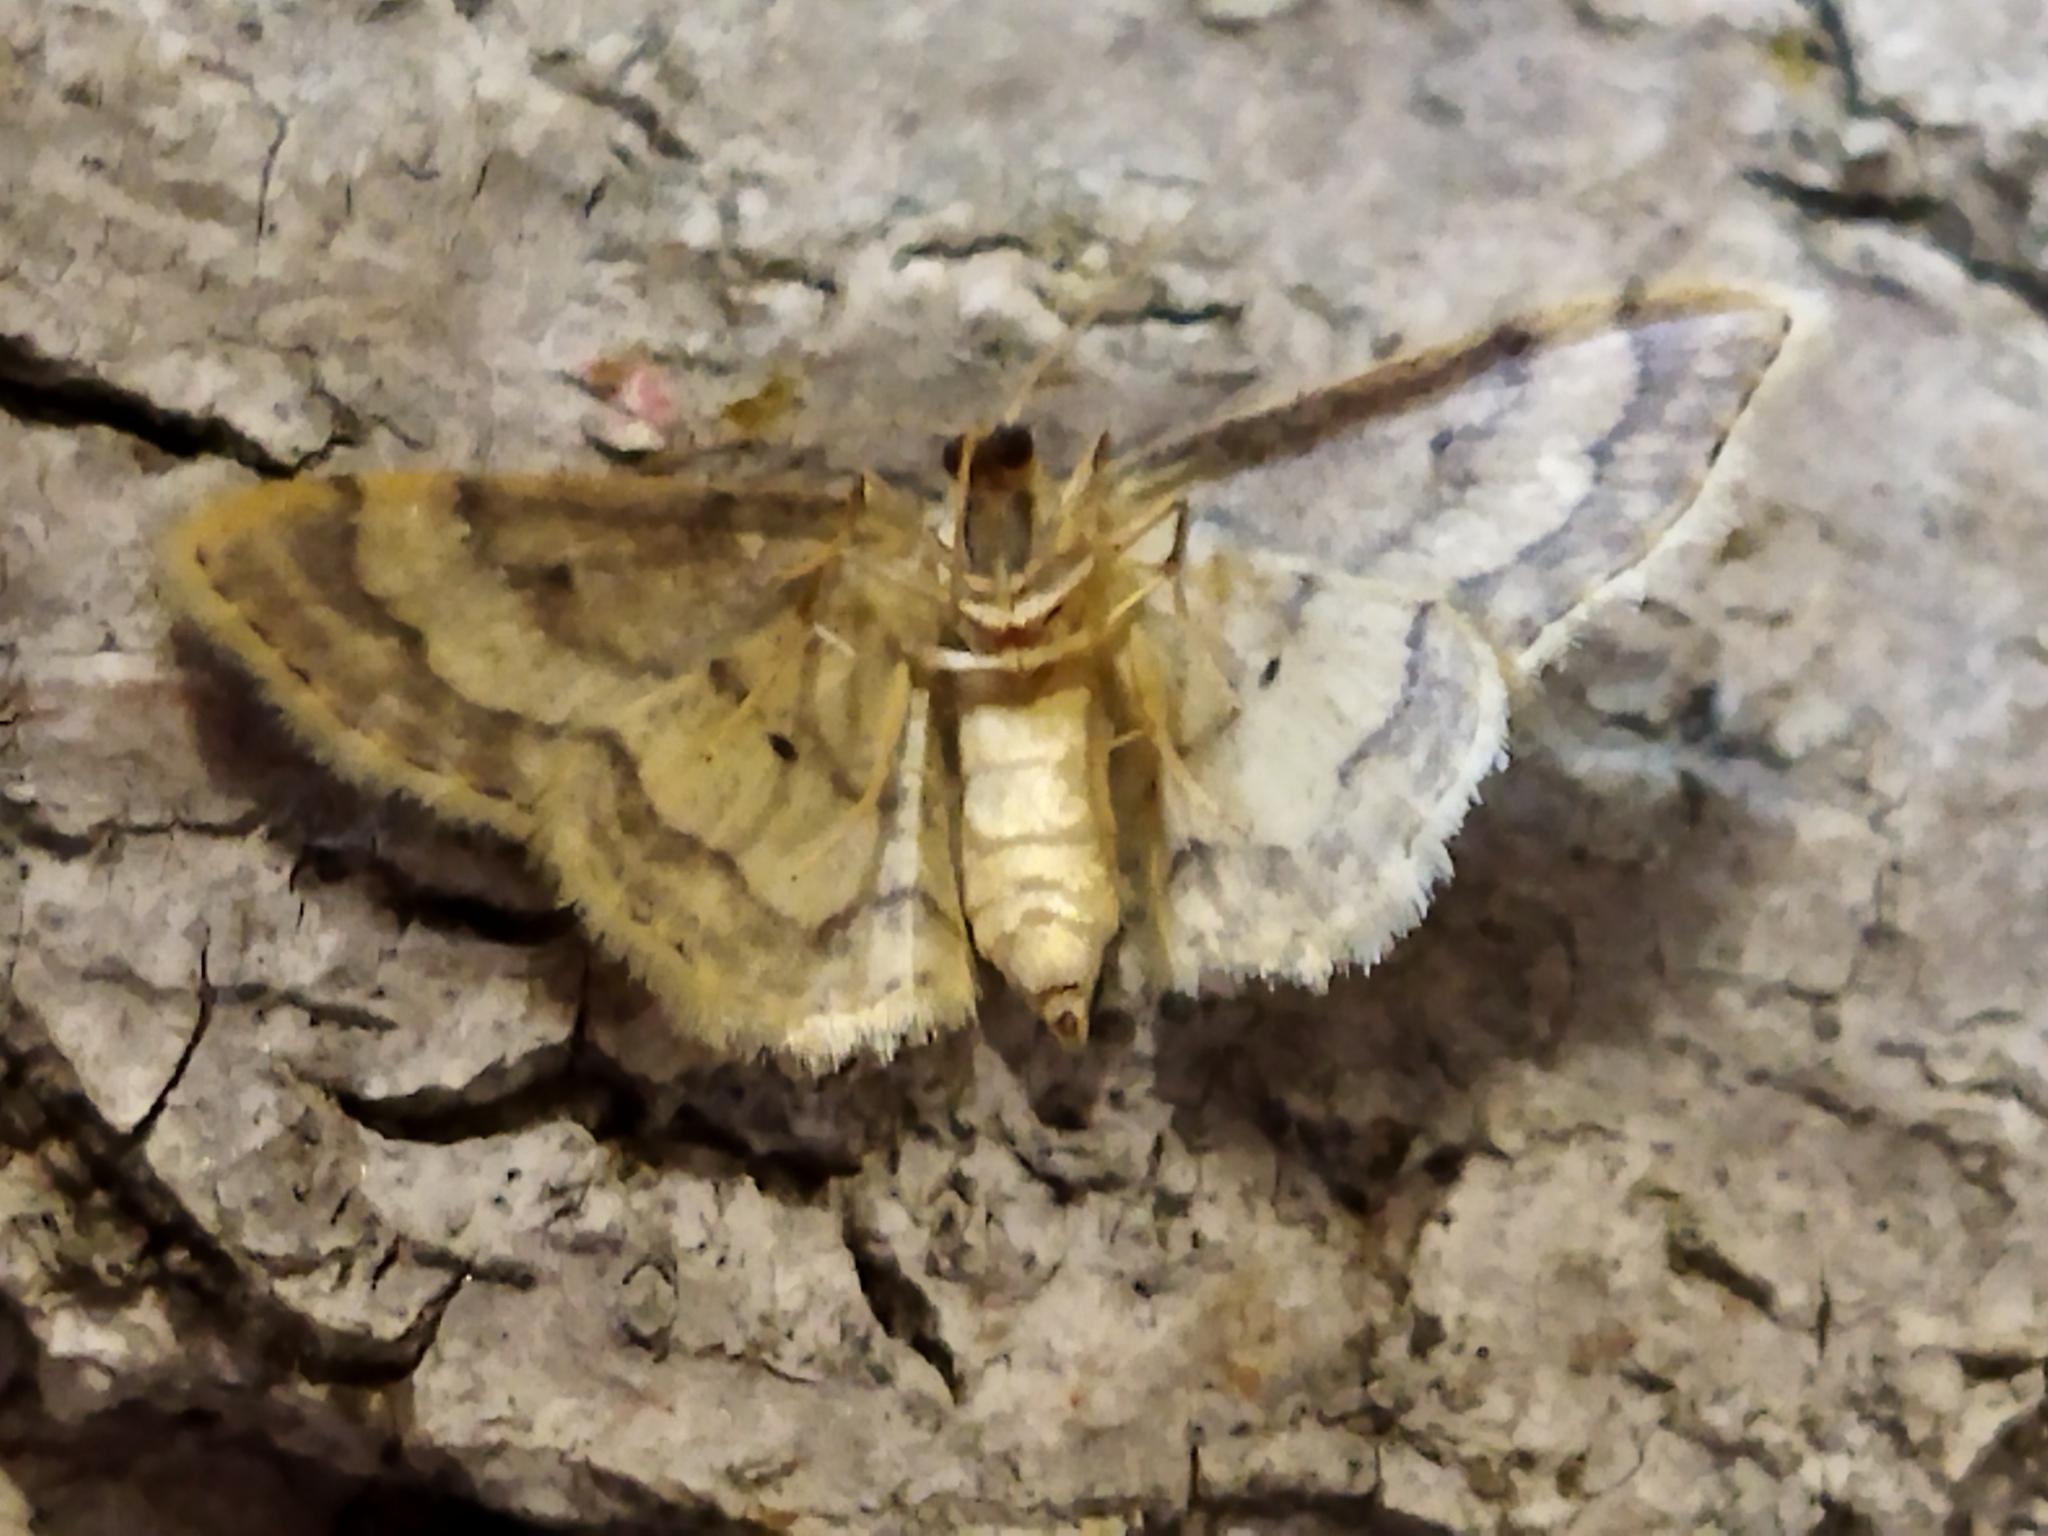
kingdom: Animalia
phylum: Arthropoda
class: Insecta
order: Lepidoptera
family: Geometridae
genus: Idaea
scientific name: Idaea politaria
